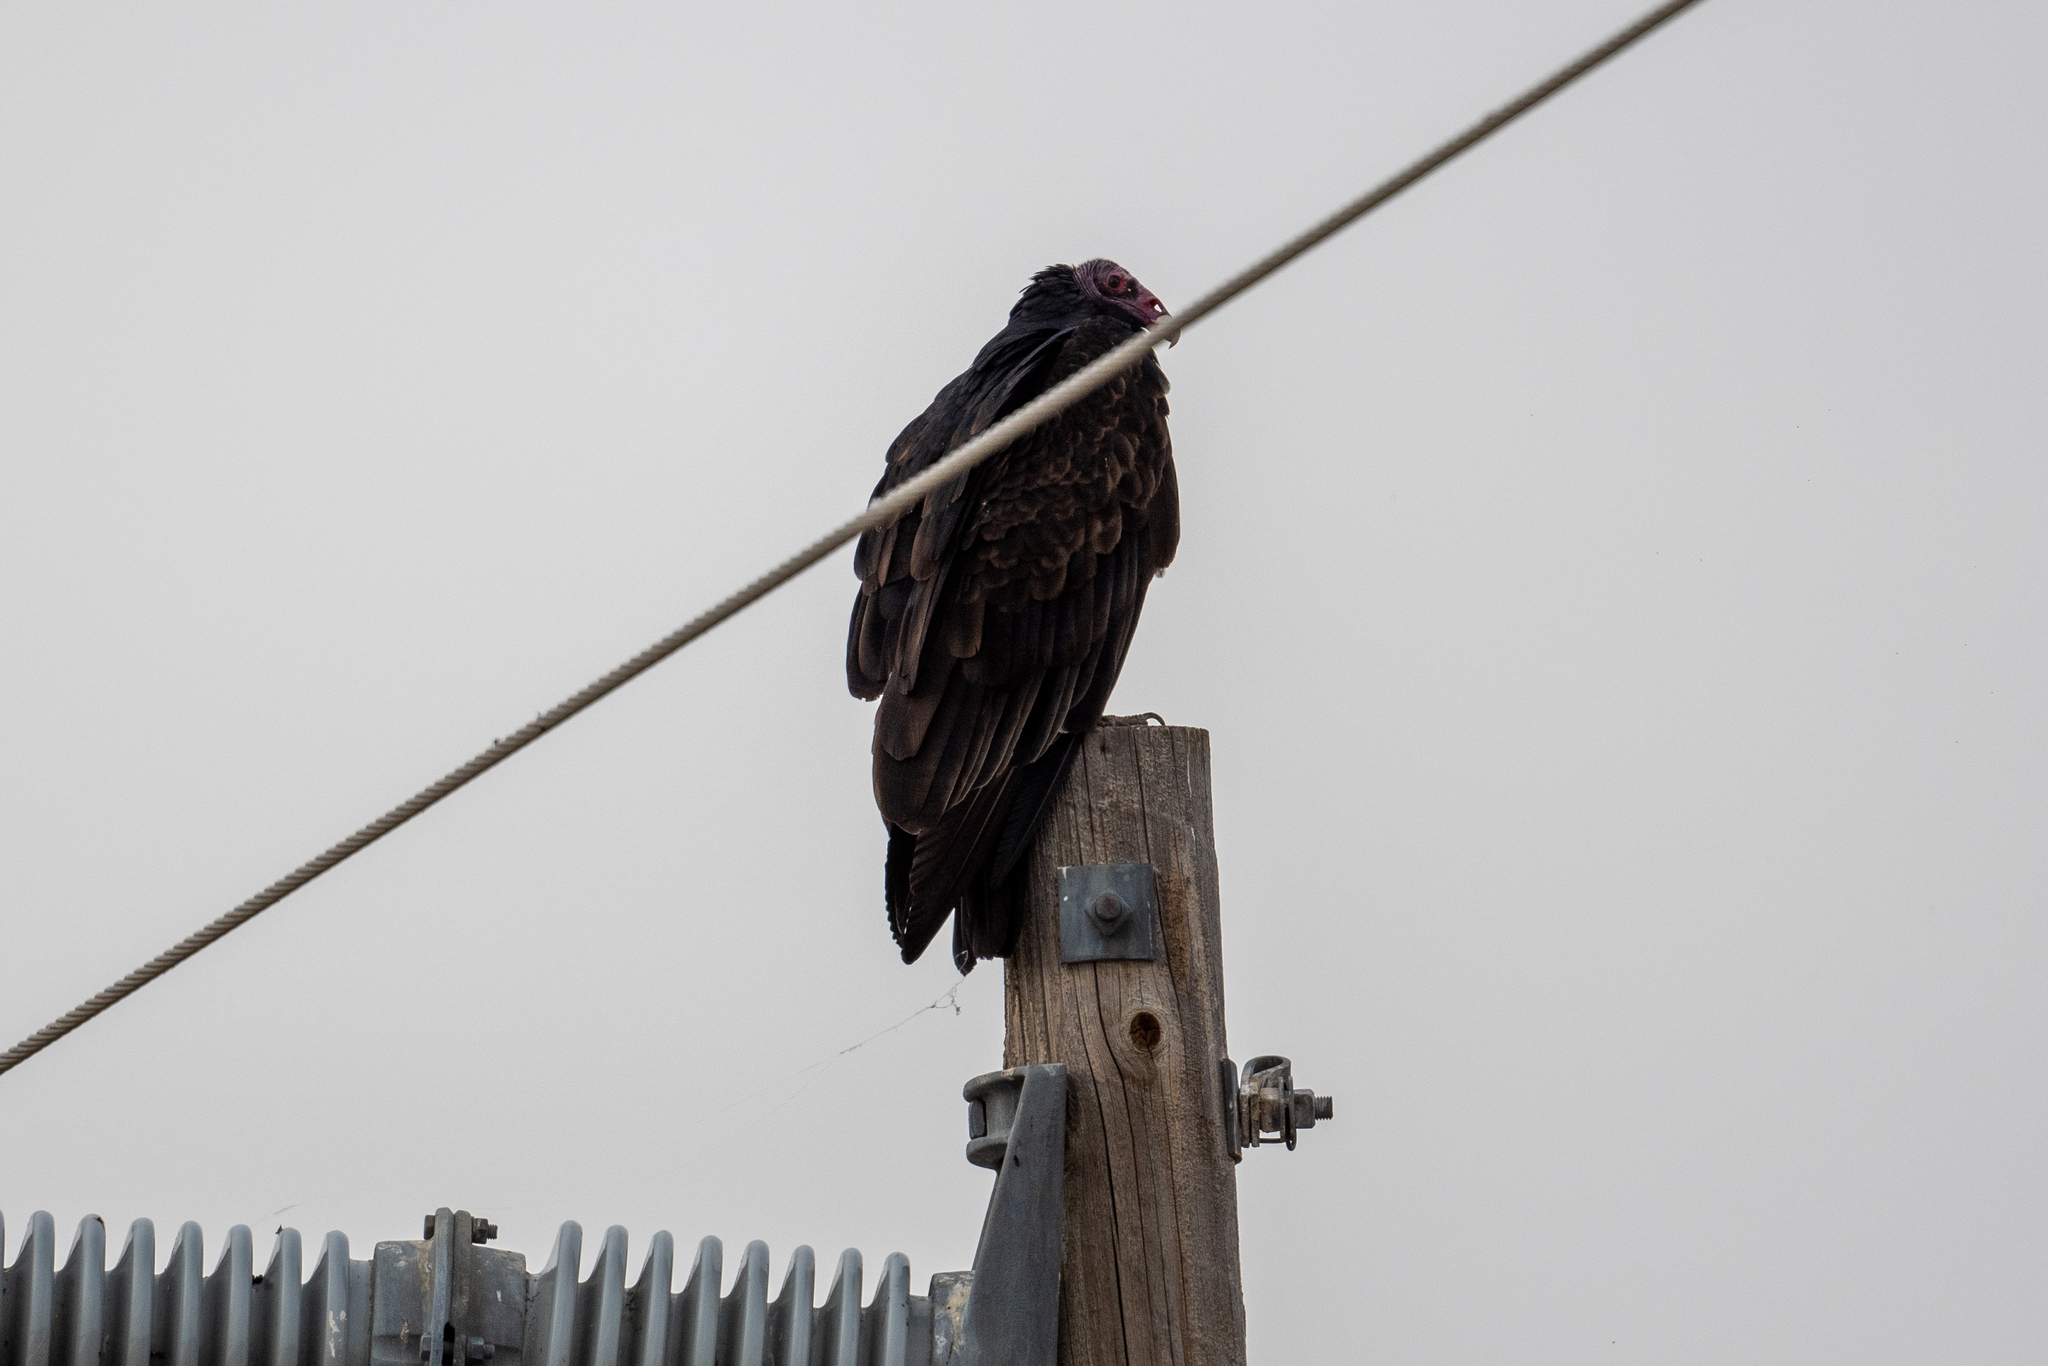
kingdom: Animalia
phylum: Chordata
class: Aves
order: Accipitriformes
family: Cathartidae
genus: Cathartes
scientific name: Cathartes aura
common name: Turkey vulture
